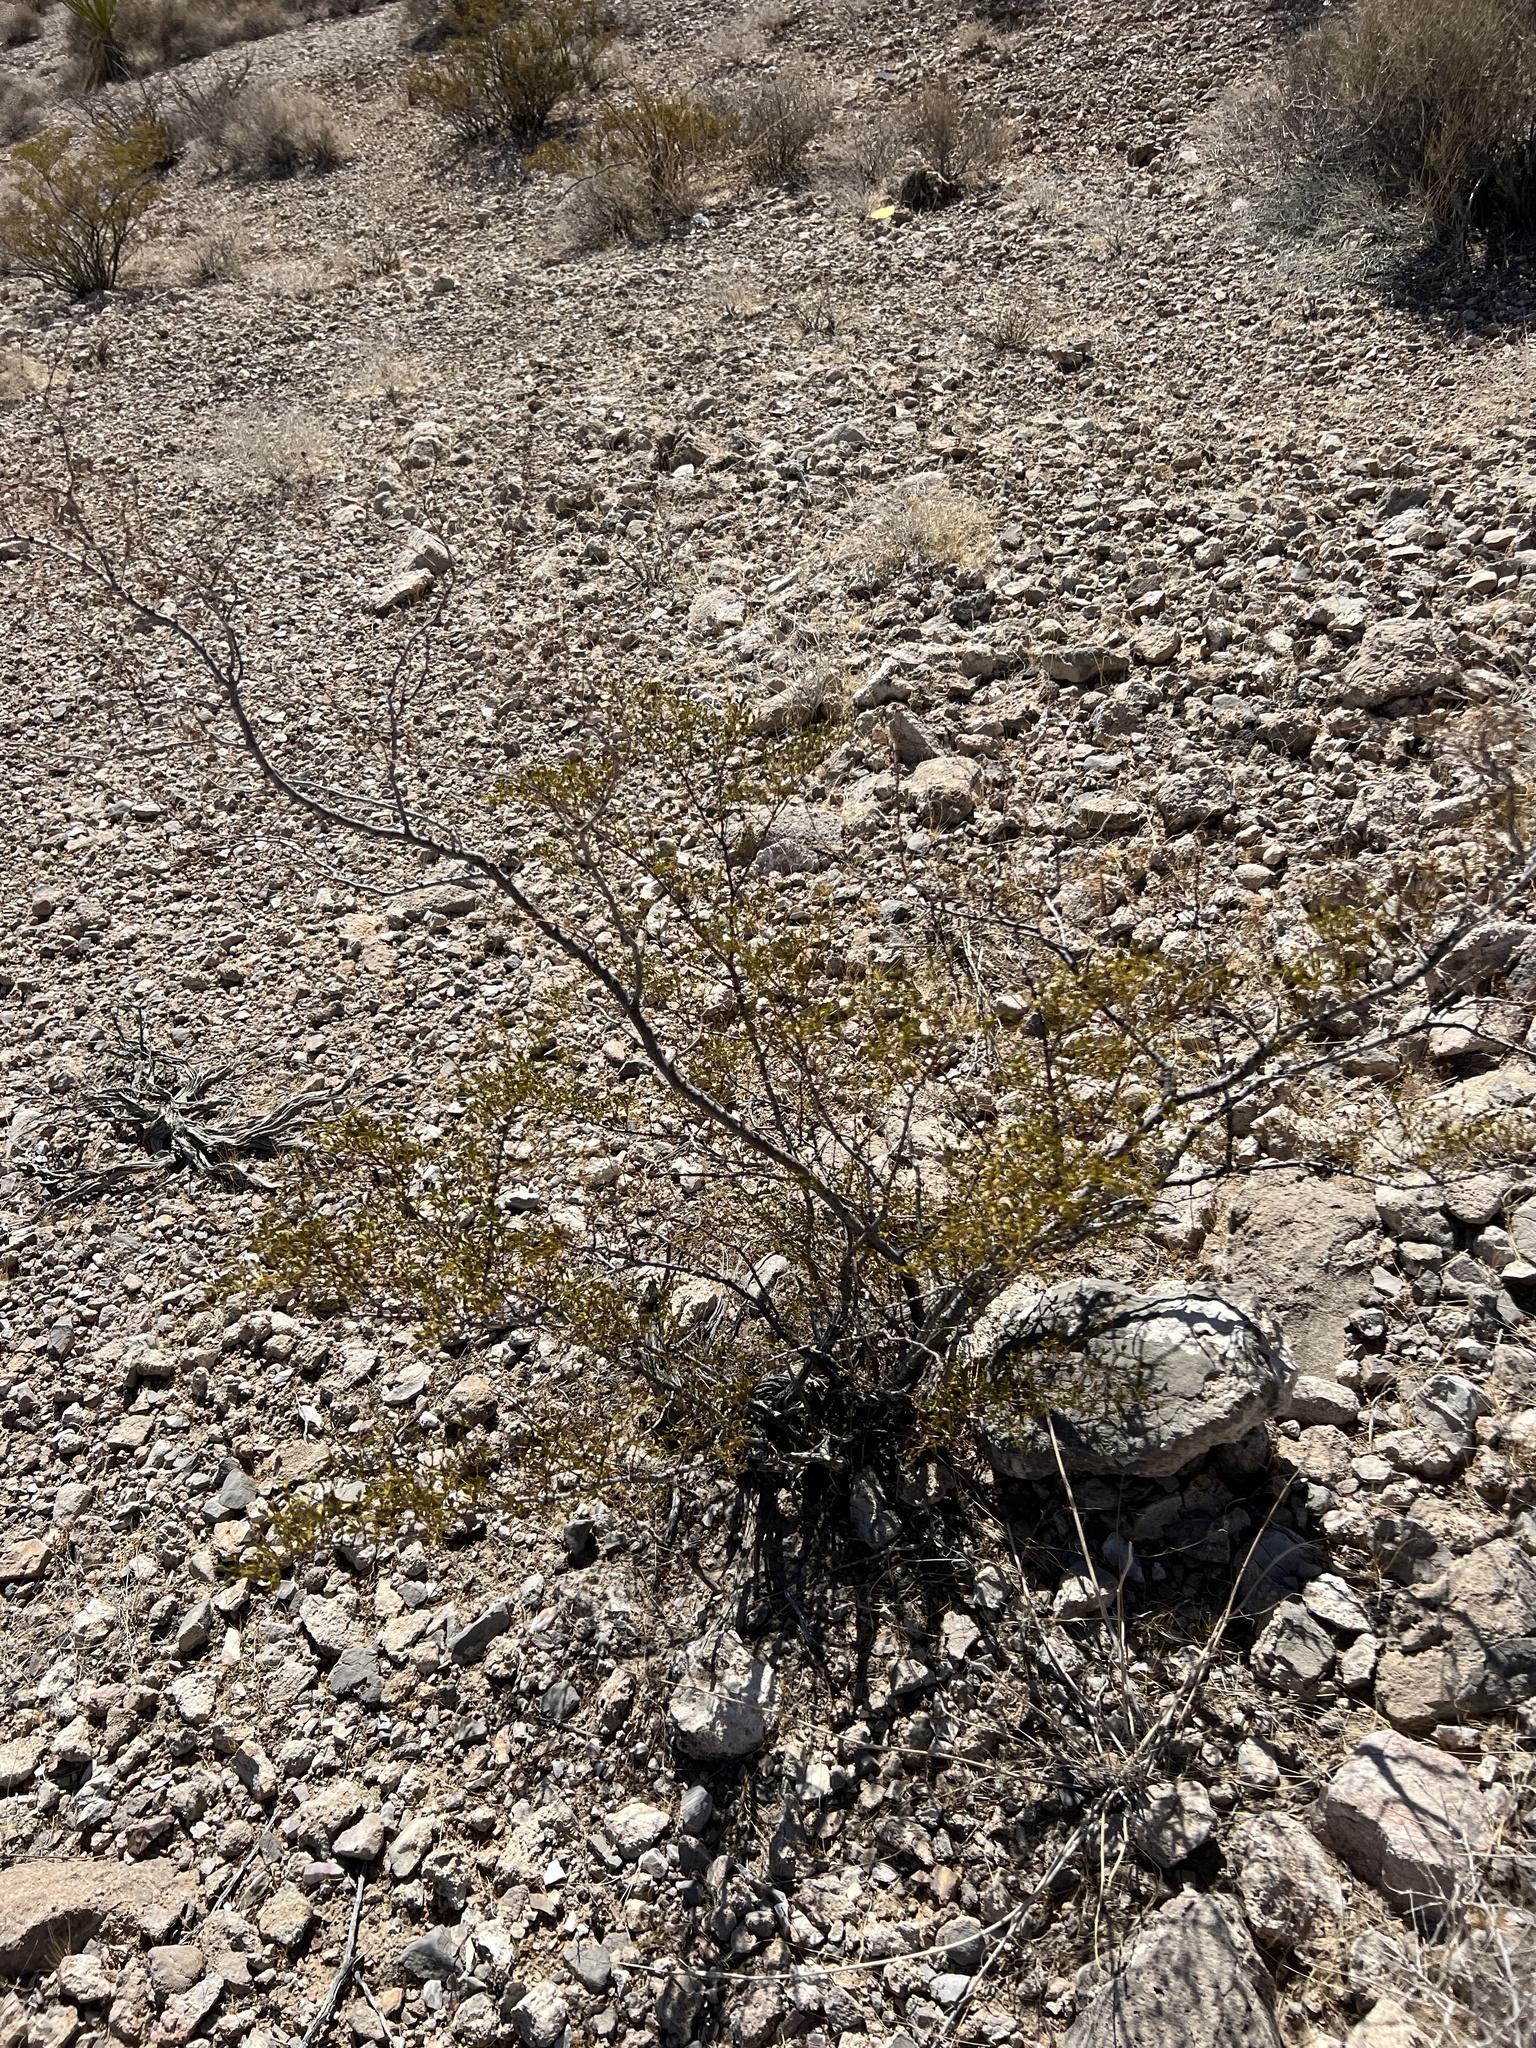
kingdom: Plantae
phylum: Tracheophyta
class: Magnoliopsida
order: Zygophyllales
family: Zygophyllaceae
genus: Larrea
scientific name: Larrea tridentata
